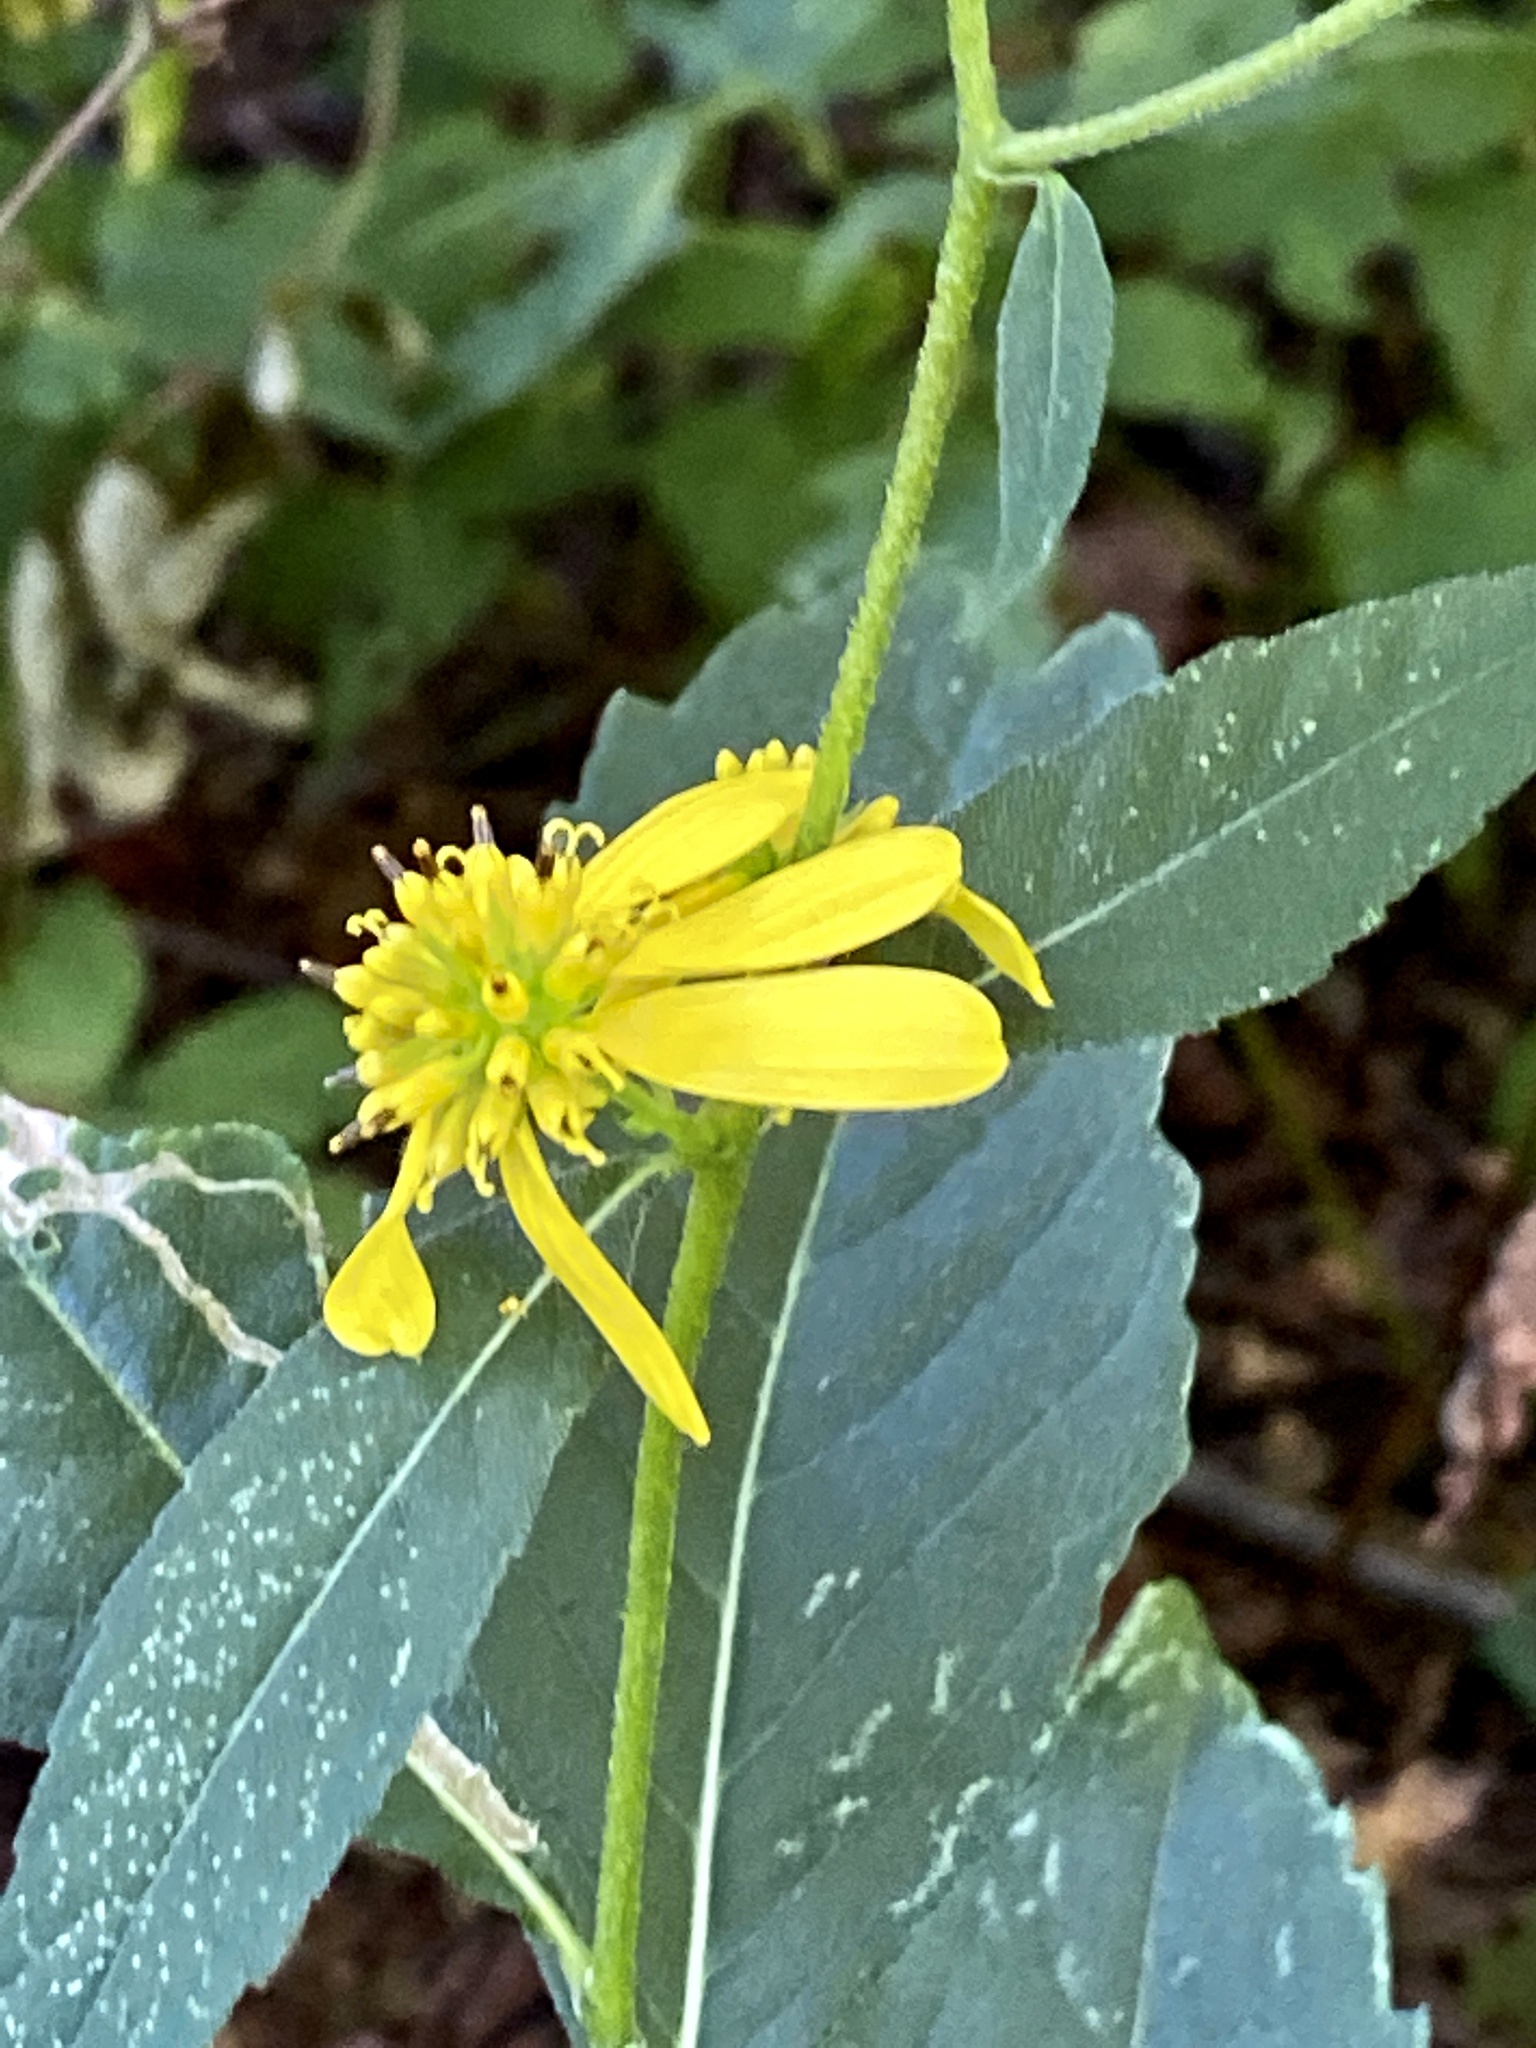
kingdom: Plantae
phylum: Tracheophyta
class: Magnoliopsida
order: Asterales
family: Asteraceae
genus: Verbesina
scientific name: Verbesina alternifolia
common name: Wingstem
